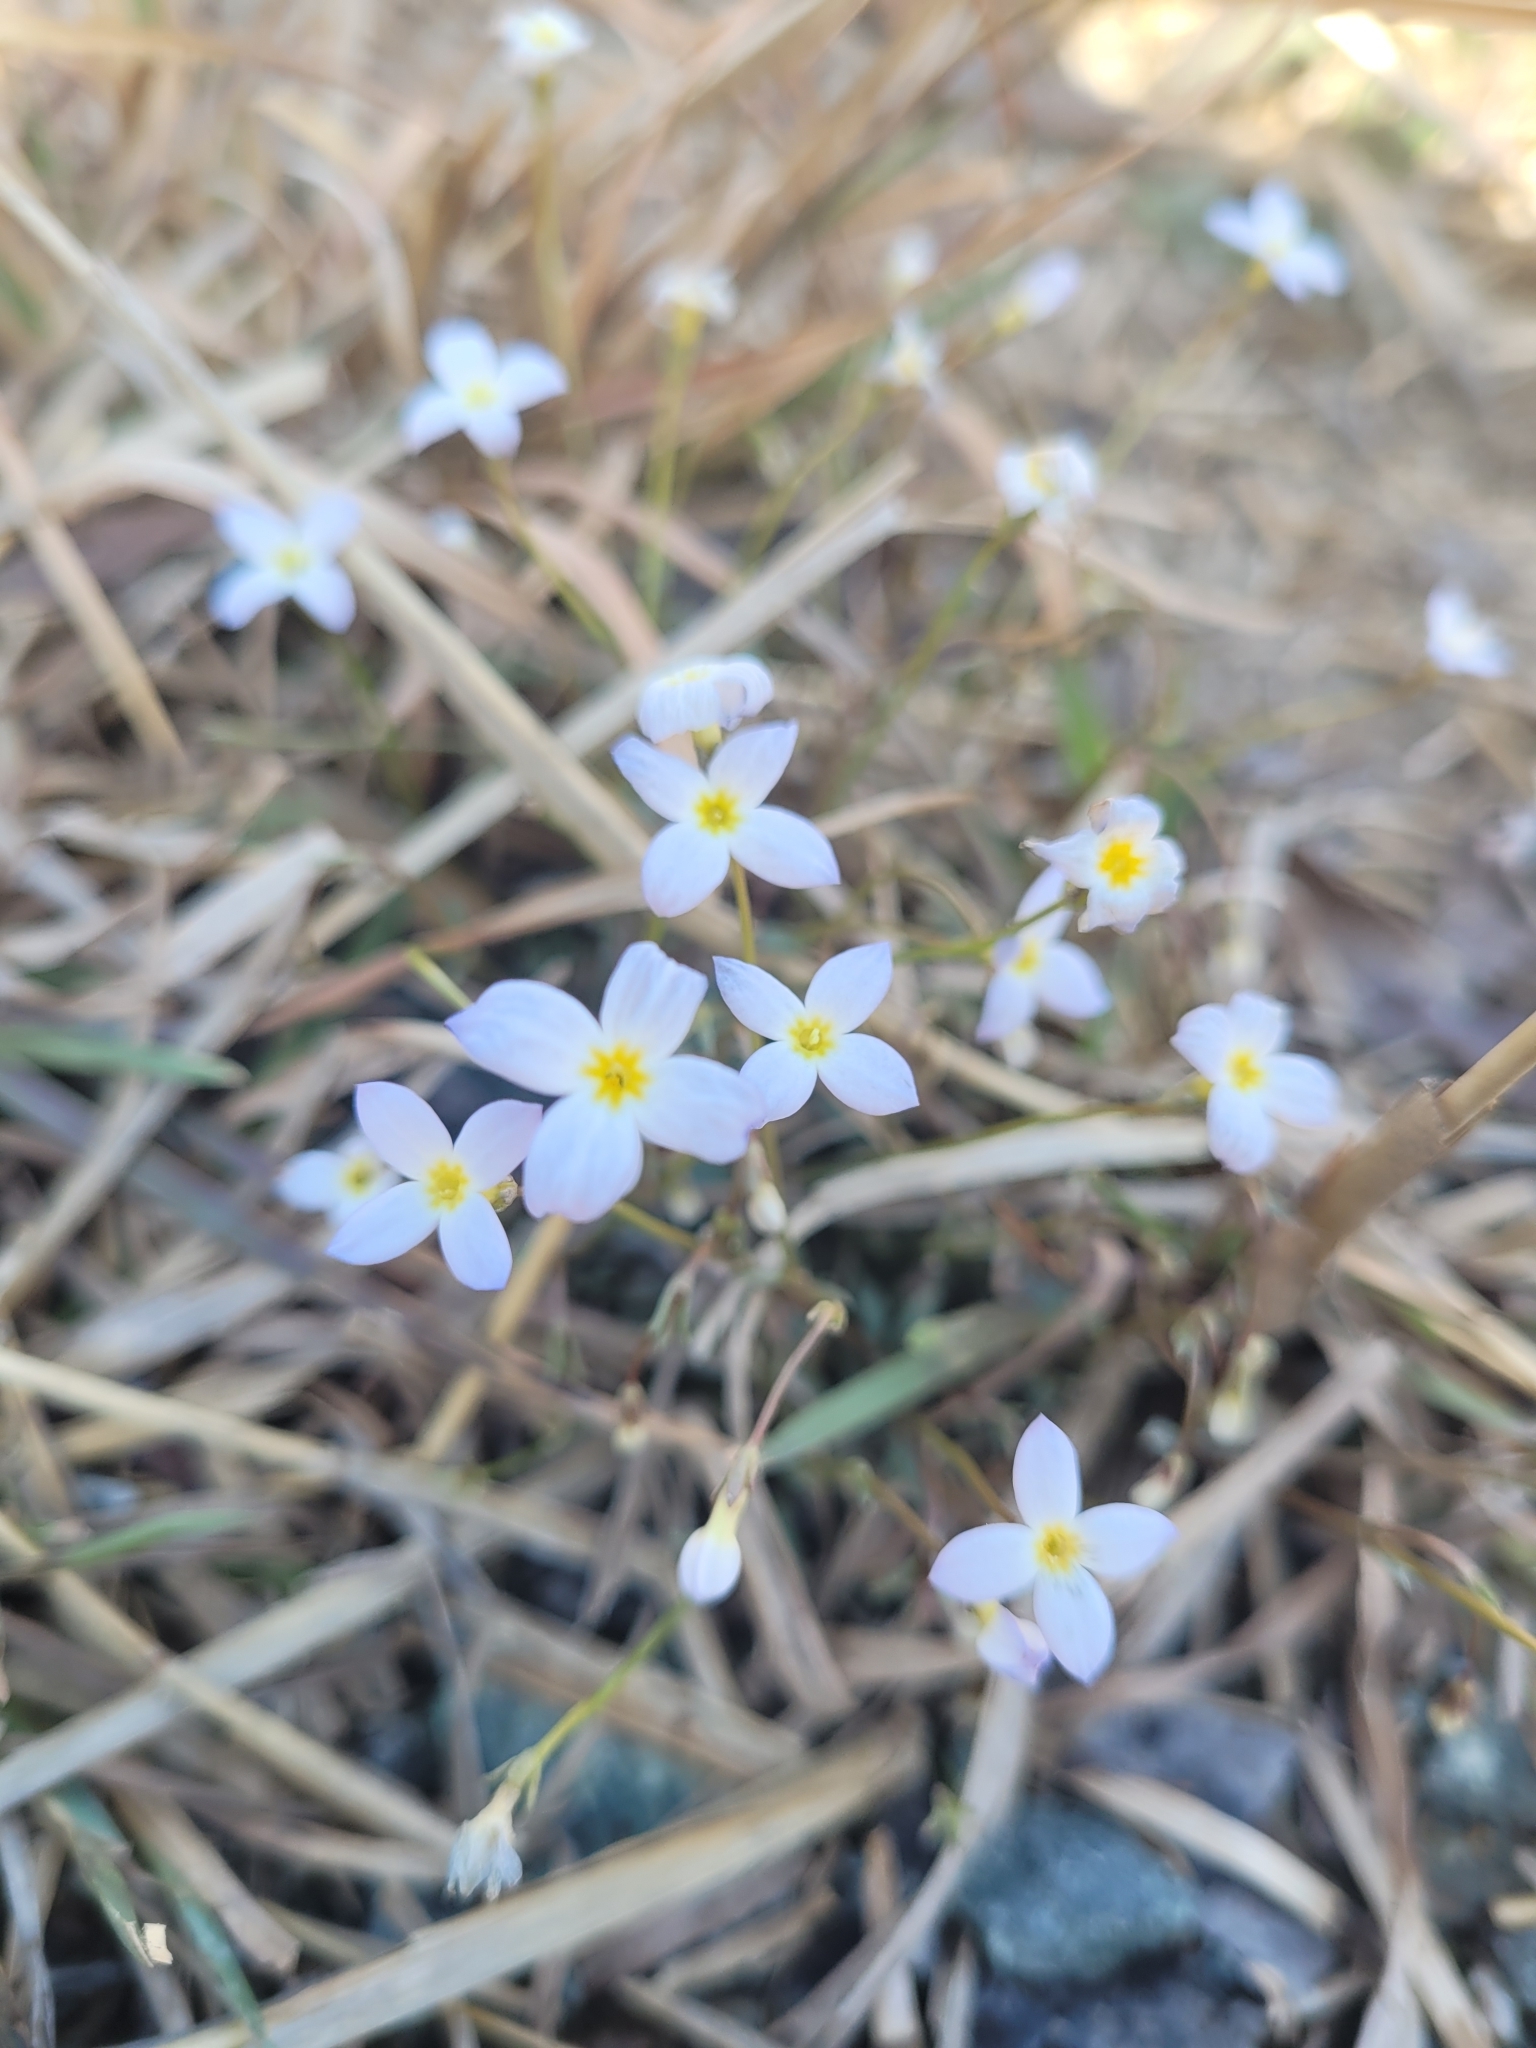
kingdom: Plantae
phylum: Tracheophyta
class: Magnoliopsida
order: Gentianales
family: Rubiaceae
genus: Houstonia
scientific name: Houstonia caerulea
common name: Bluets
